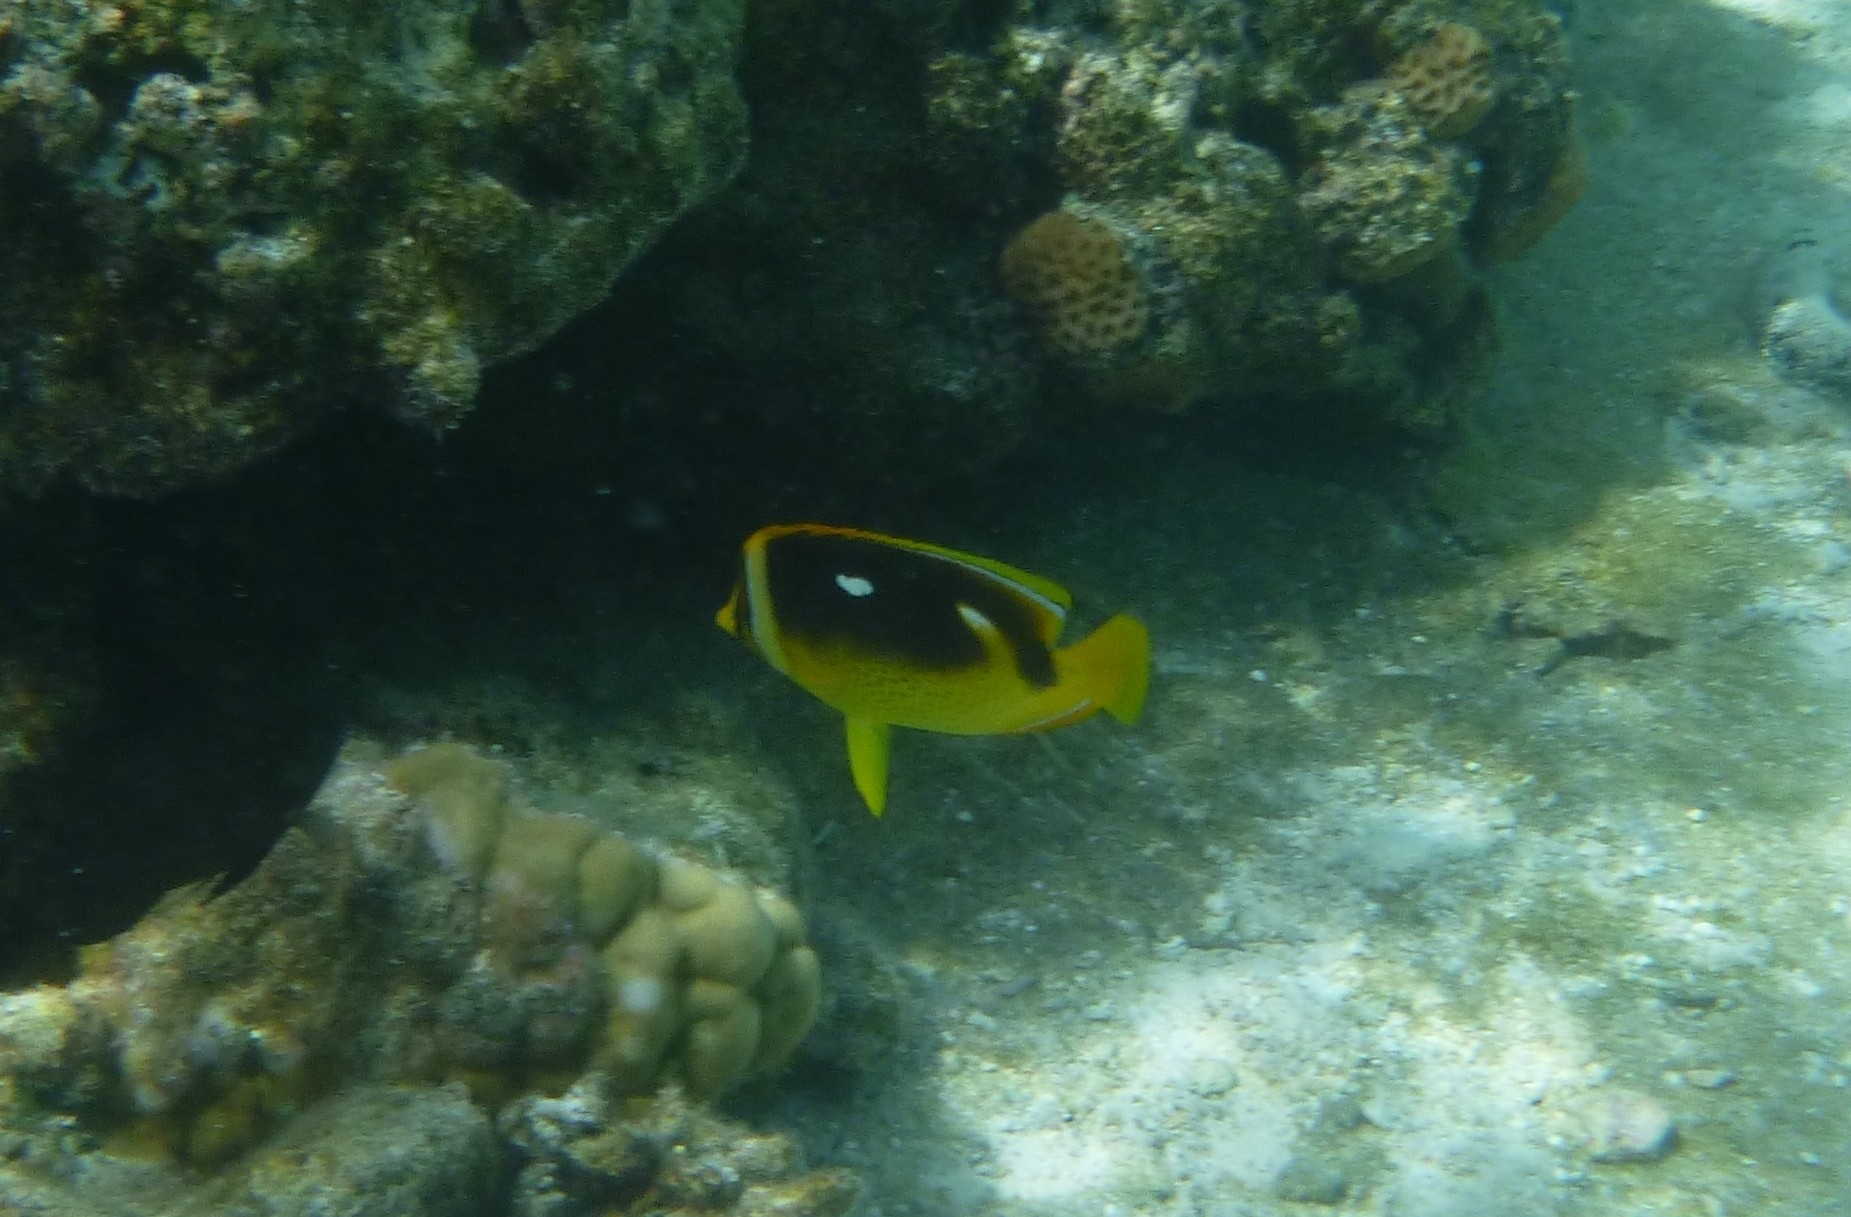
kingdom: Animalia
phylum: Chordata
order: Perciformes
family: Chaetodontidae
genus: Chaetodon
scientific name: Chaetodon quadrimaculatus
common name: Fourspot butterflyfish
